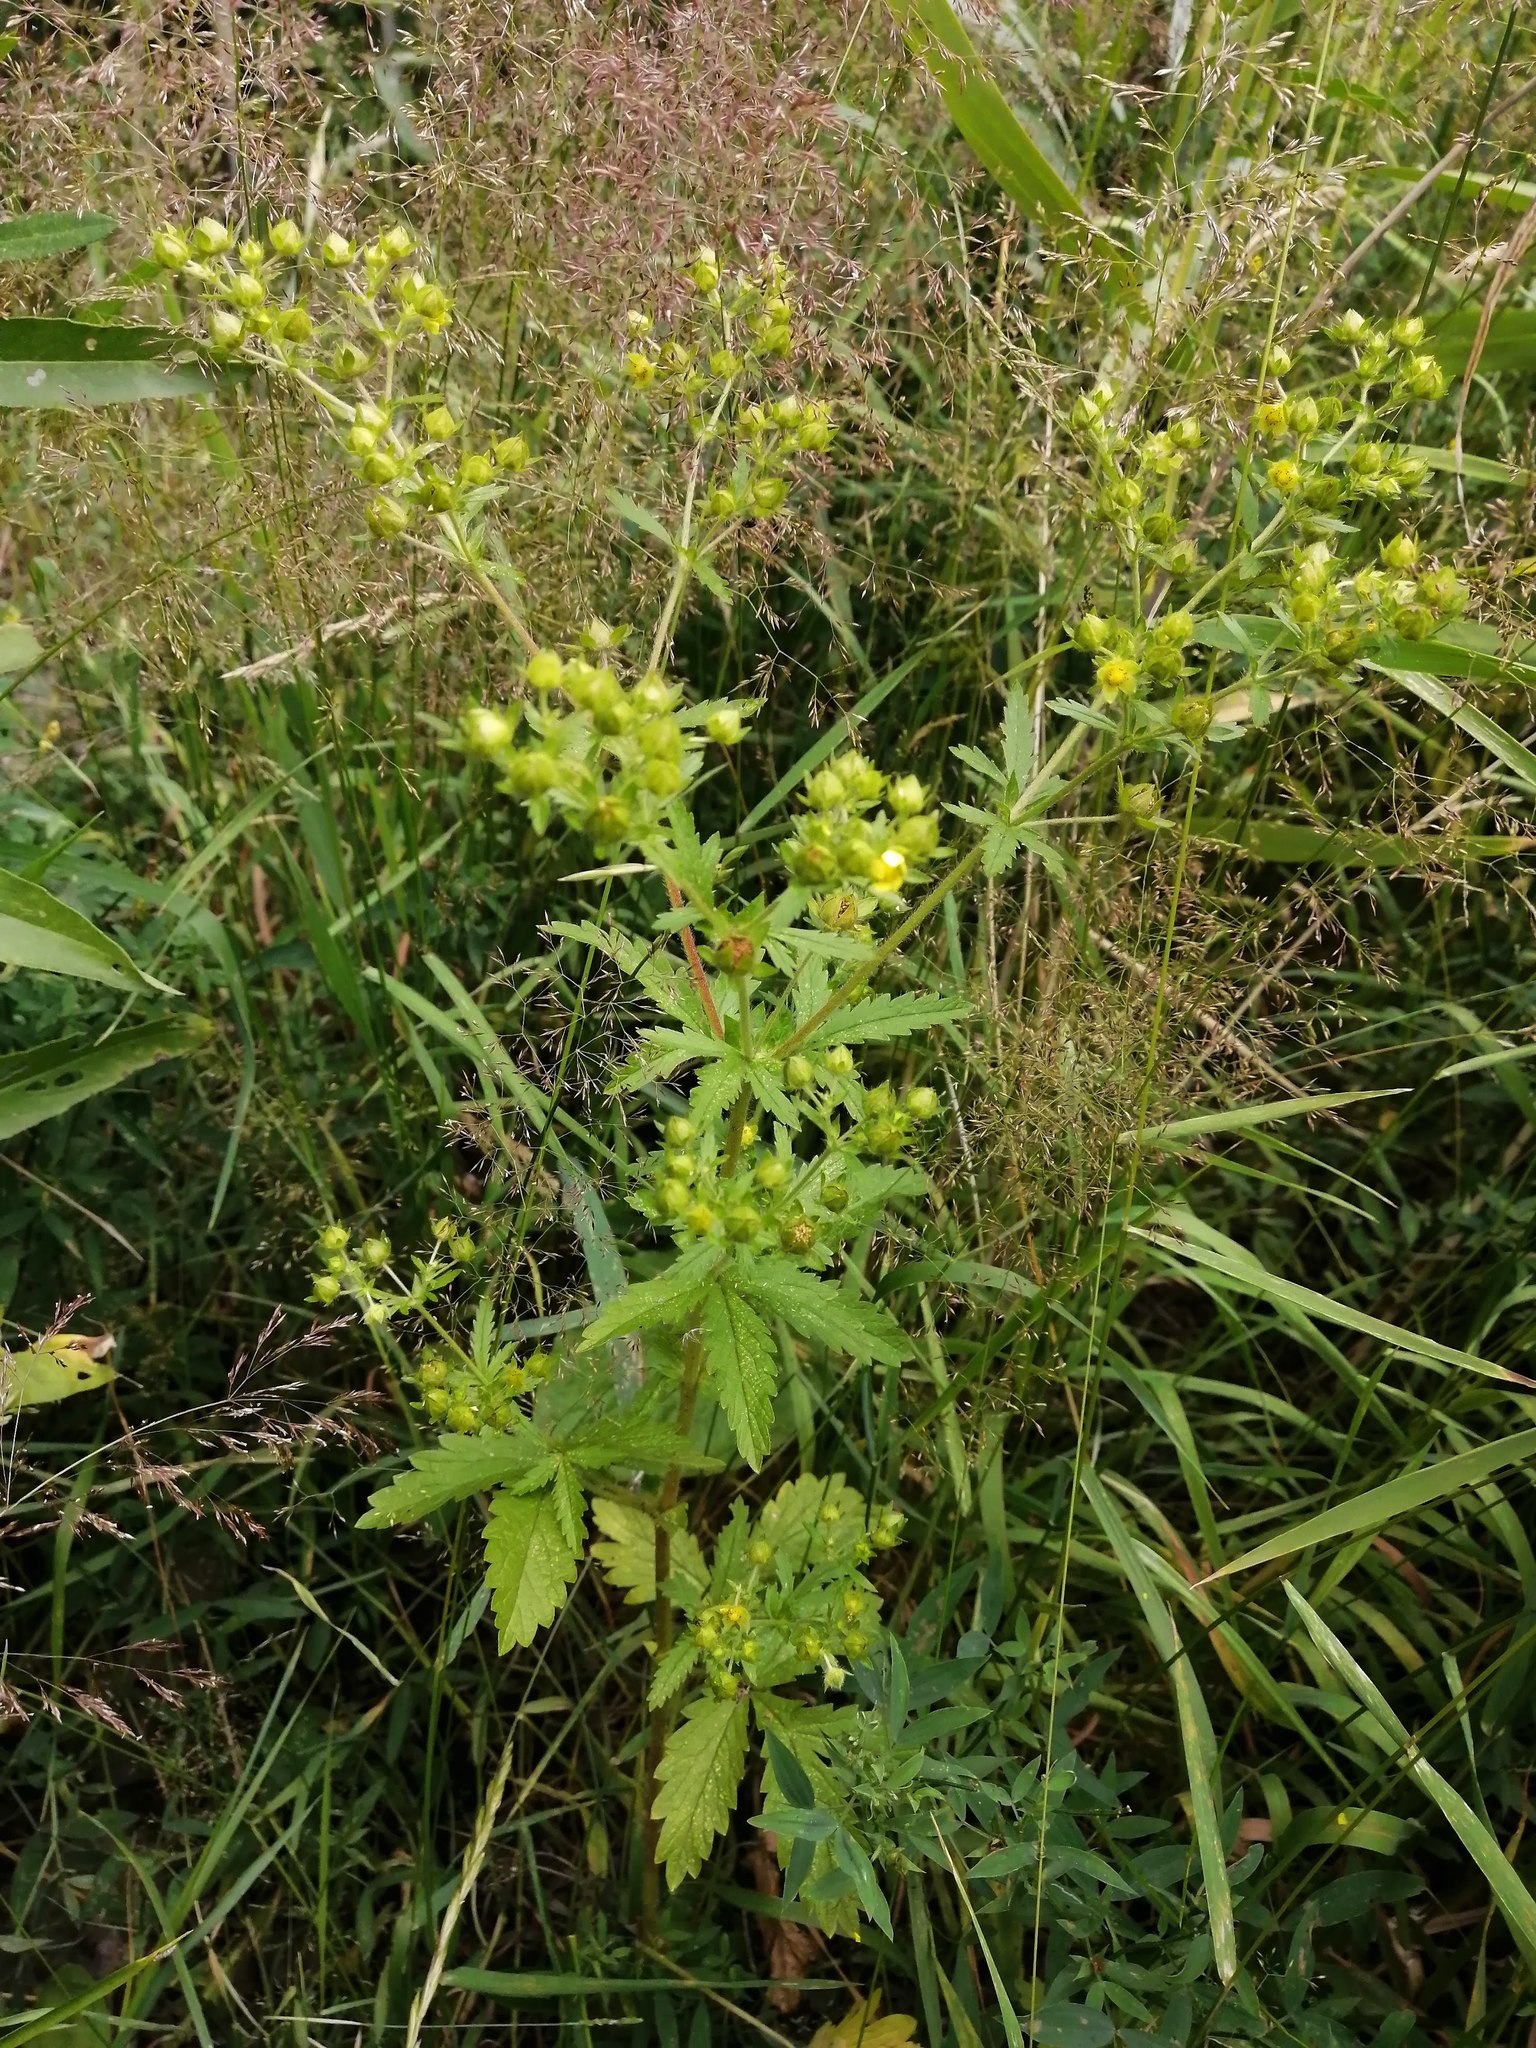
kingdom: Plantae
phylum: Tracheophyta
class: Magnoliopsida
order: Rosales
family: Rosaceae
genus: Potentilla
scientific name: Potentilla norvegica
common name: Ternate-leaved cinquefoil
